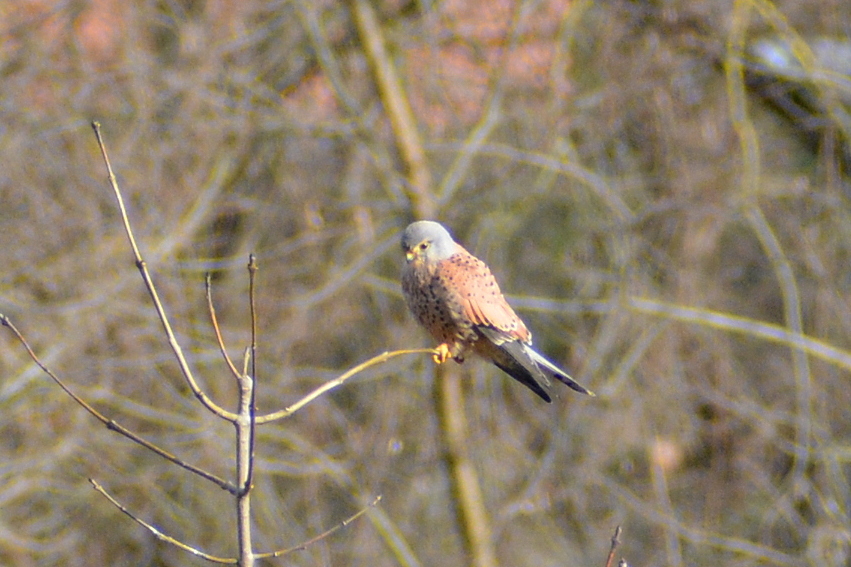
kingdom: Animalia
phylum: Chordata
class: Aves
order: Falconiformes
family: Falconidae
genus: Falco
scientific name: Falco tinnunculus
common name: Common kestrel
